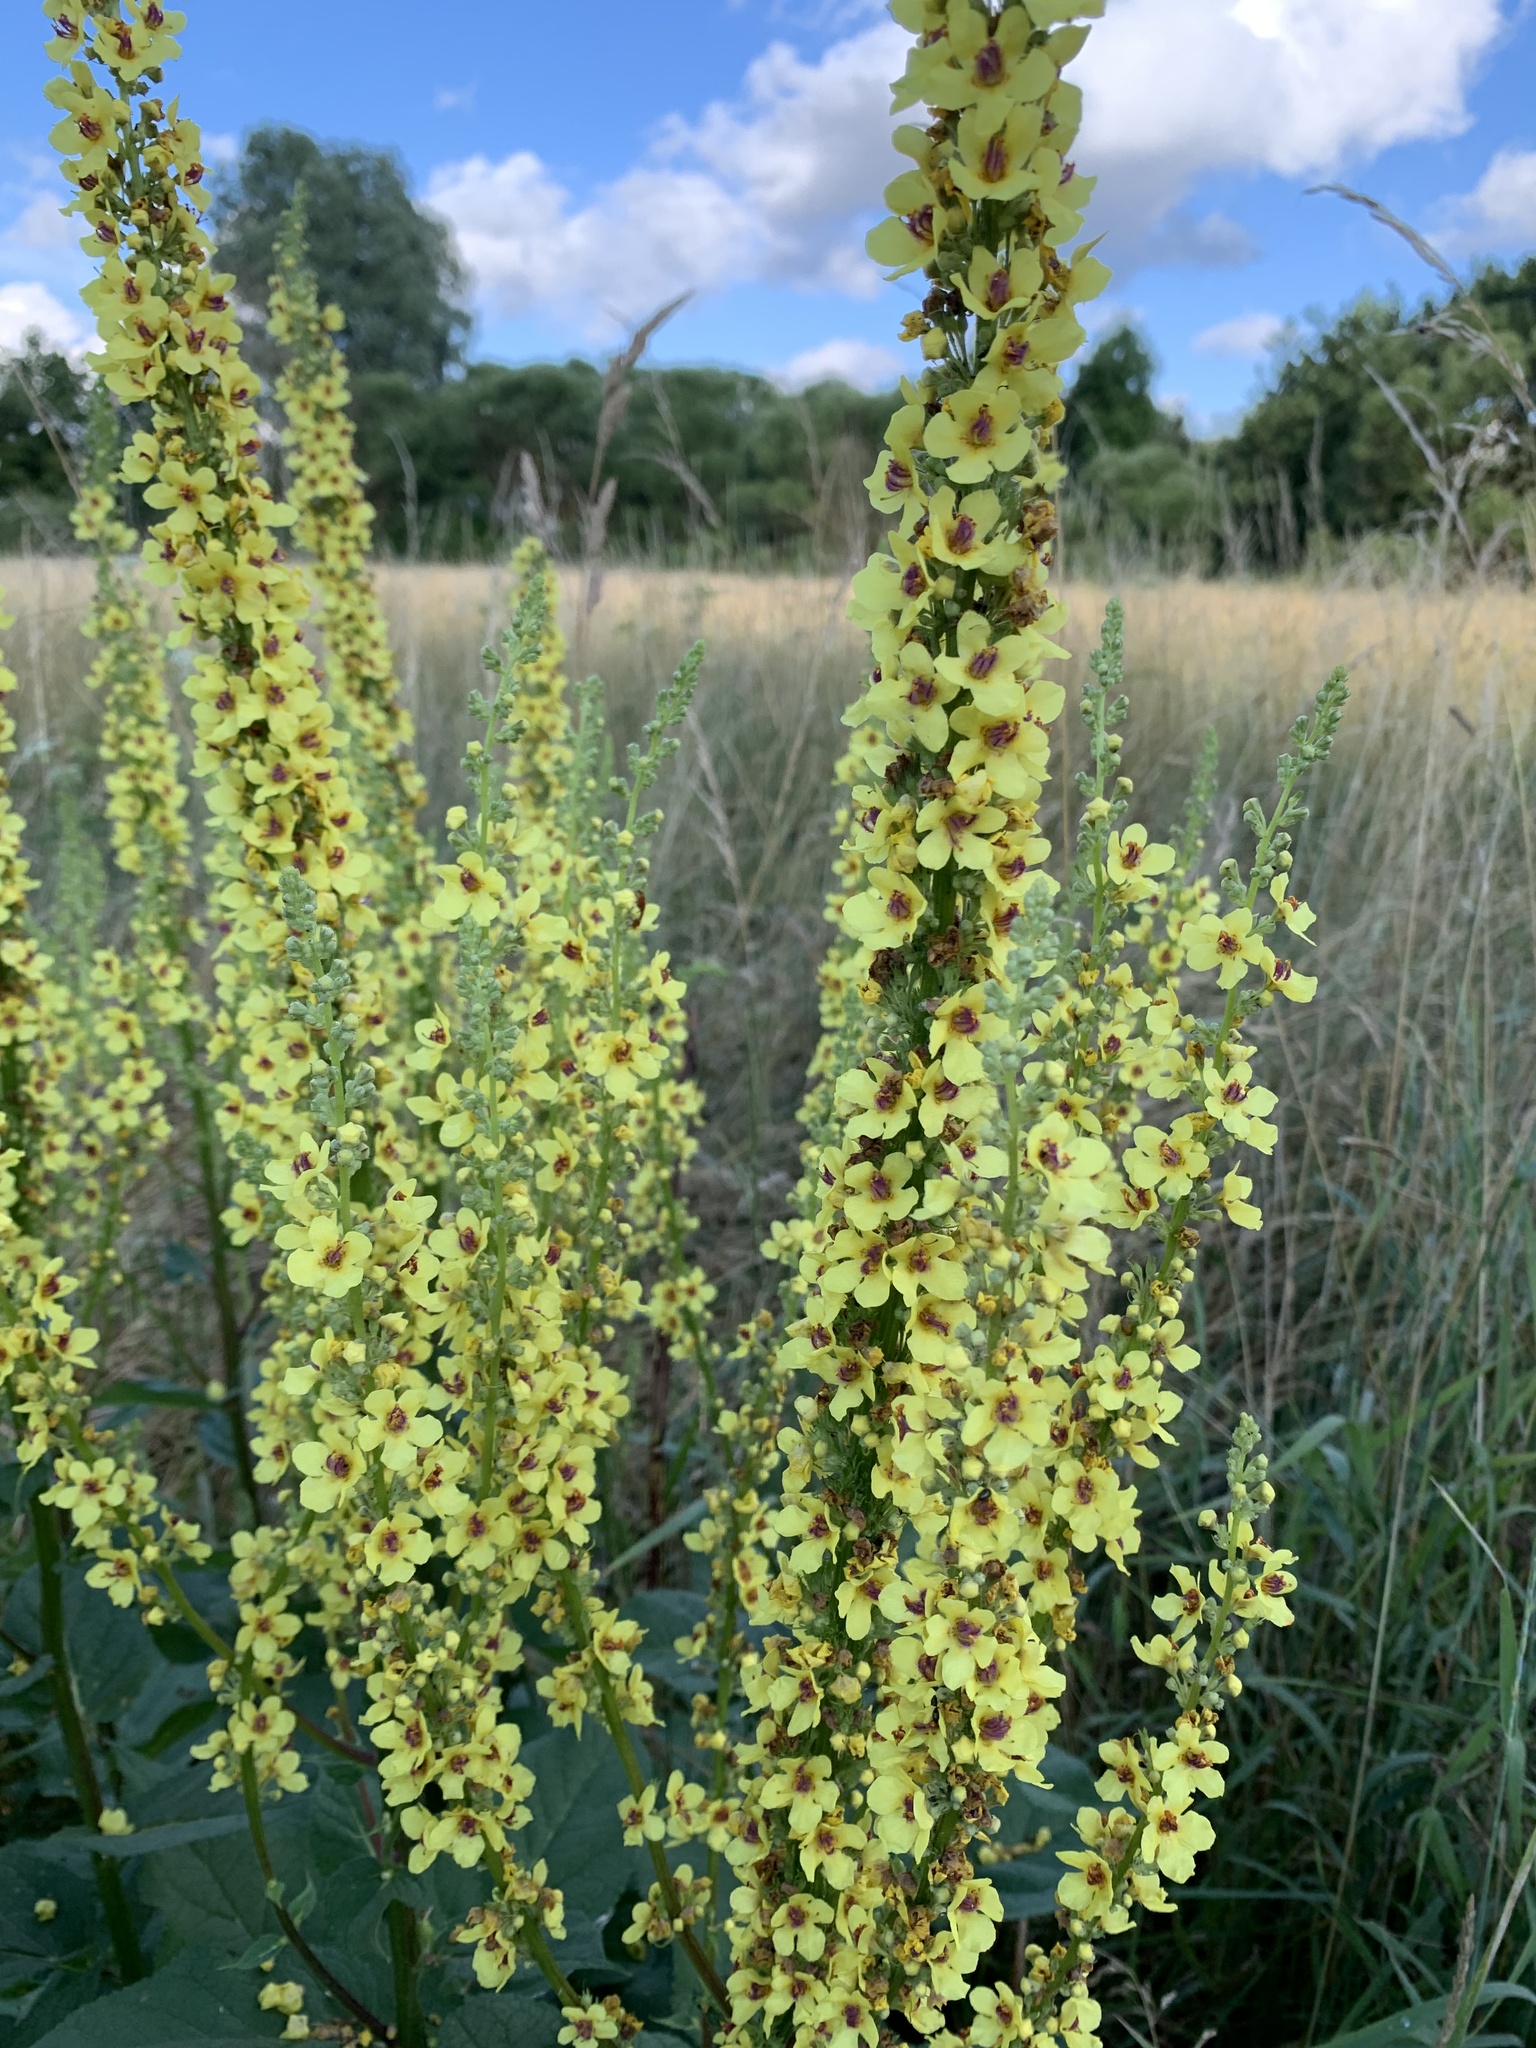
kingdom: Plantae
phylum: Tracheophyta
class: Magnoliopsida
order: Lamiales
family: Scrophulariaceae
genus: Verbascum
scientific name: Verbascum nigrum
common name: Dark mullein
